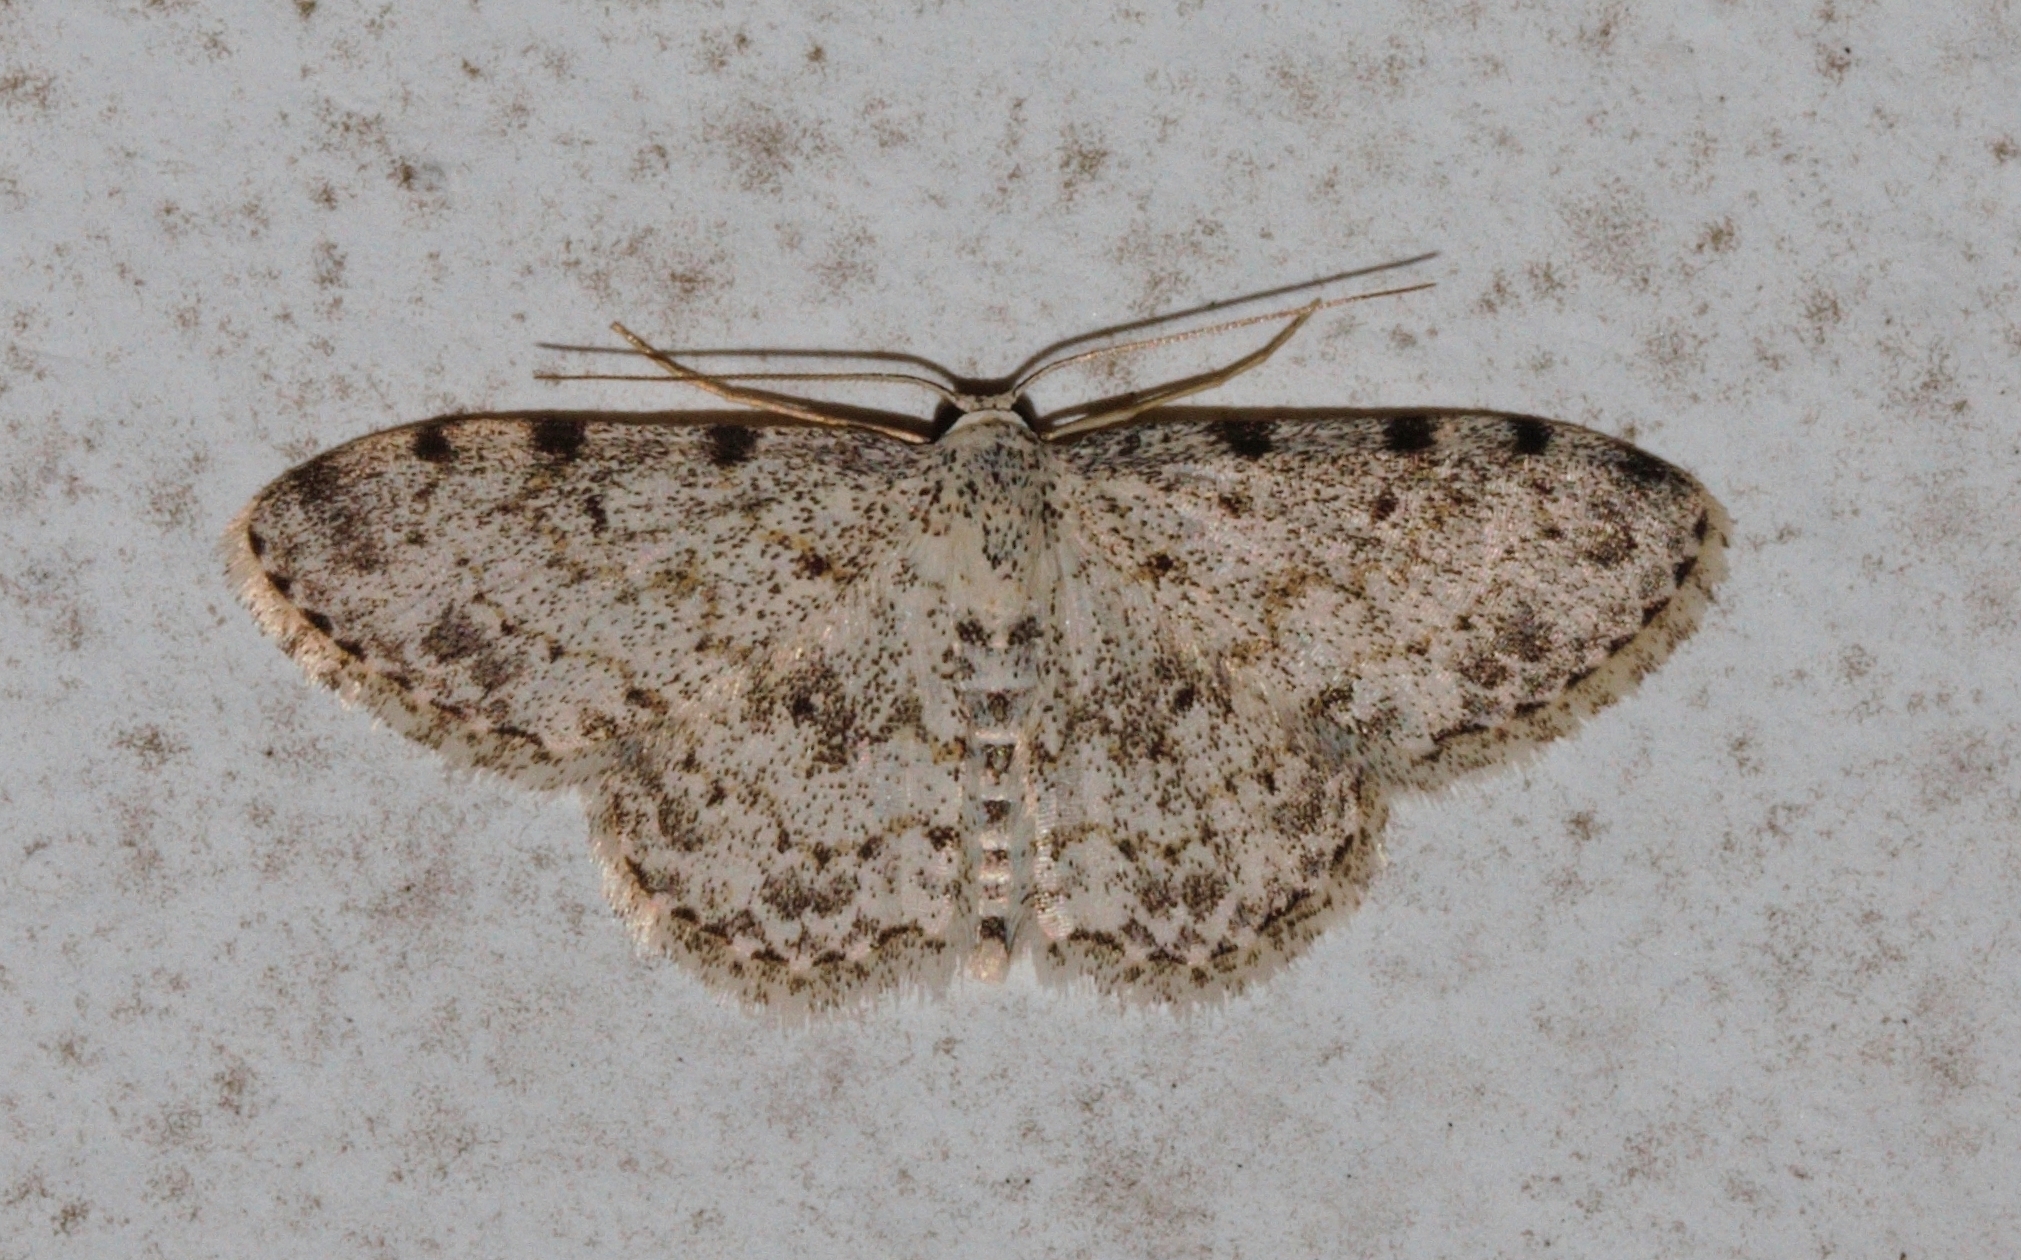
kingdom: Animalia
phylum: Arthropoda
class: Insecta
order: Lepidoptera
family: Geometridae
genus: Scopula
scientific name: Scopula nigrinotata
